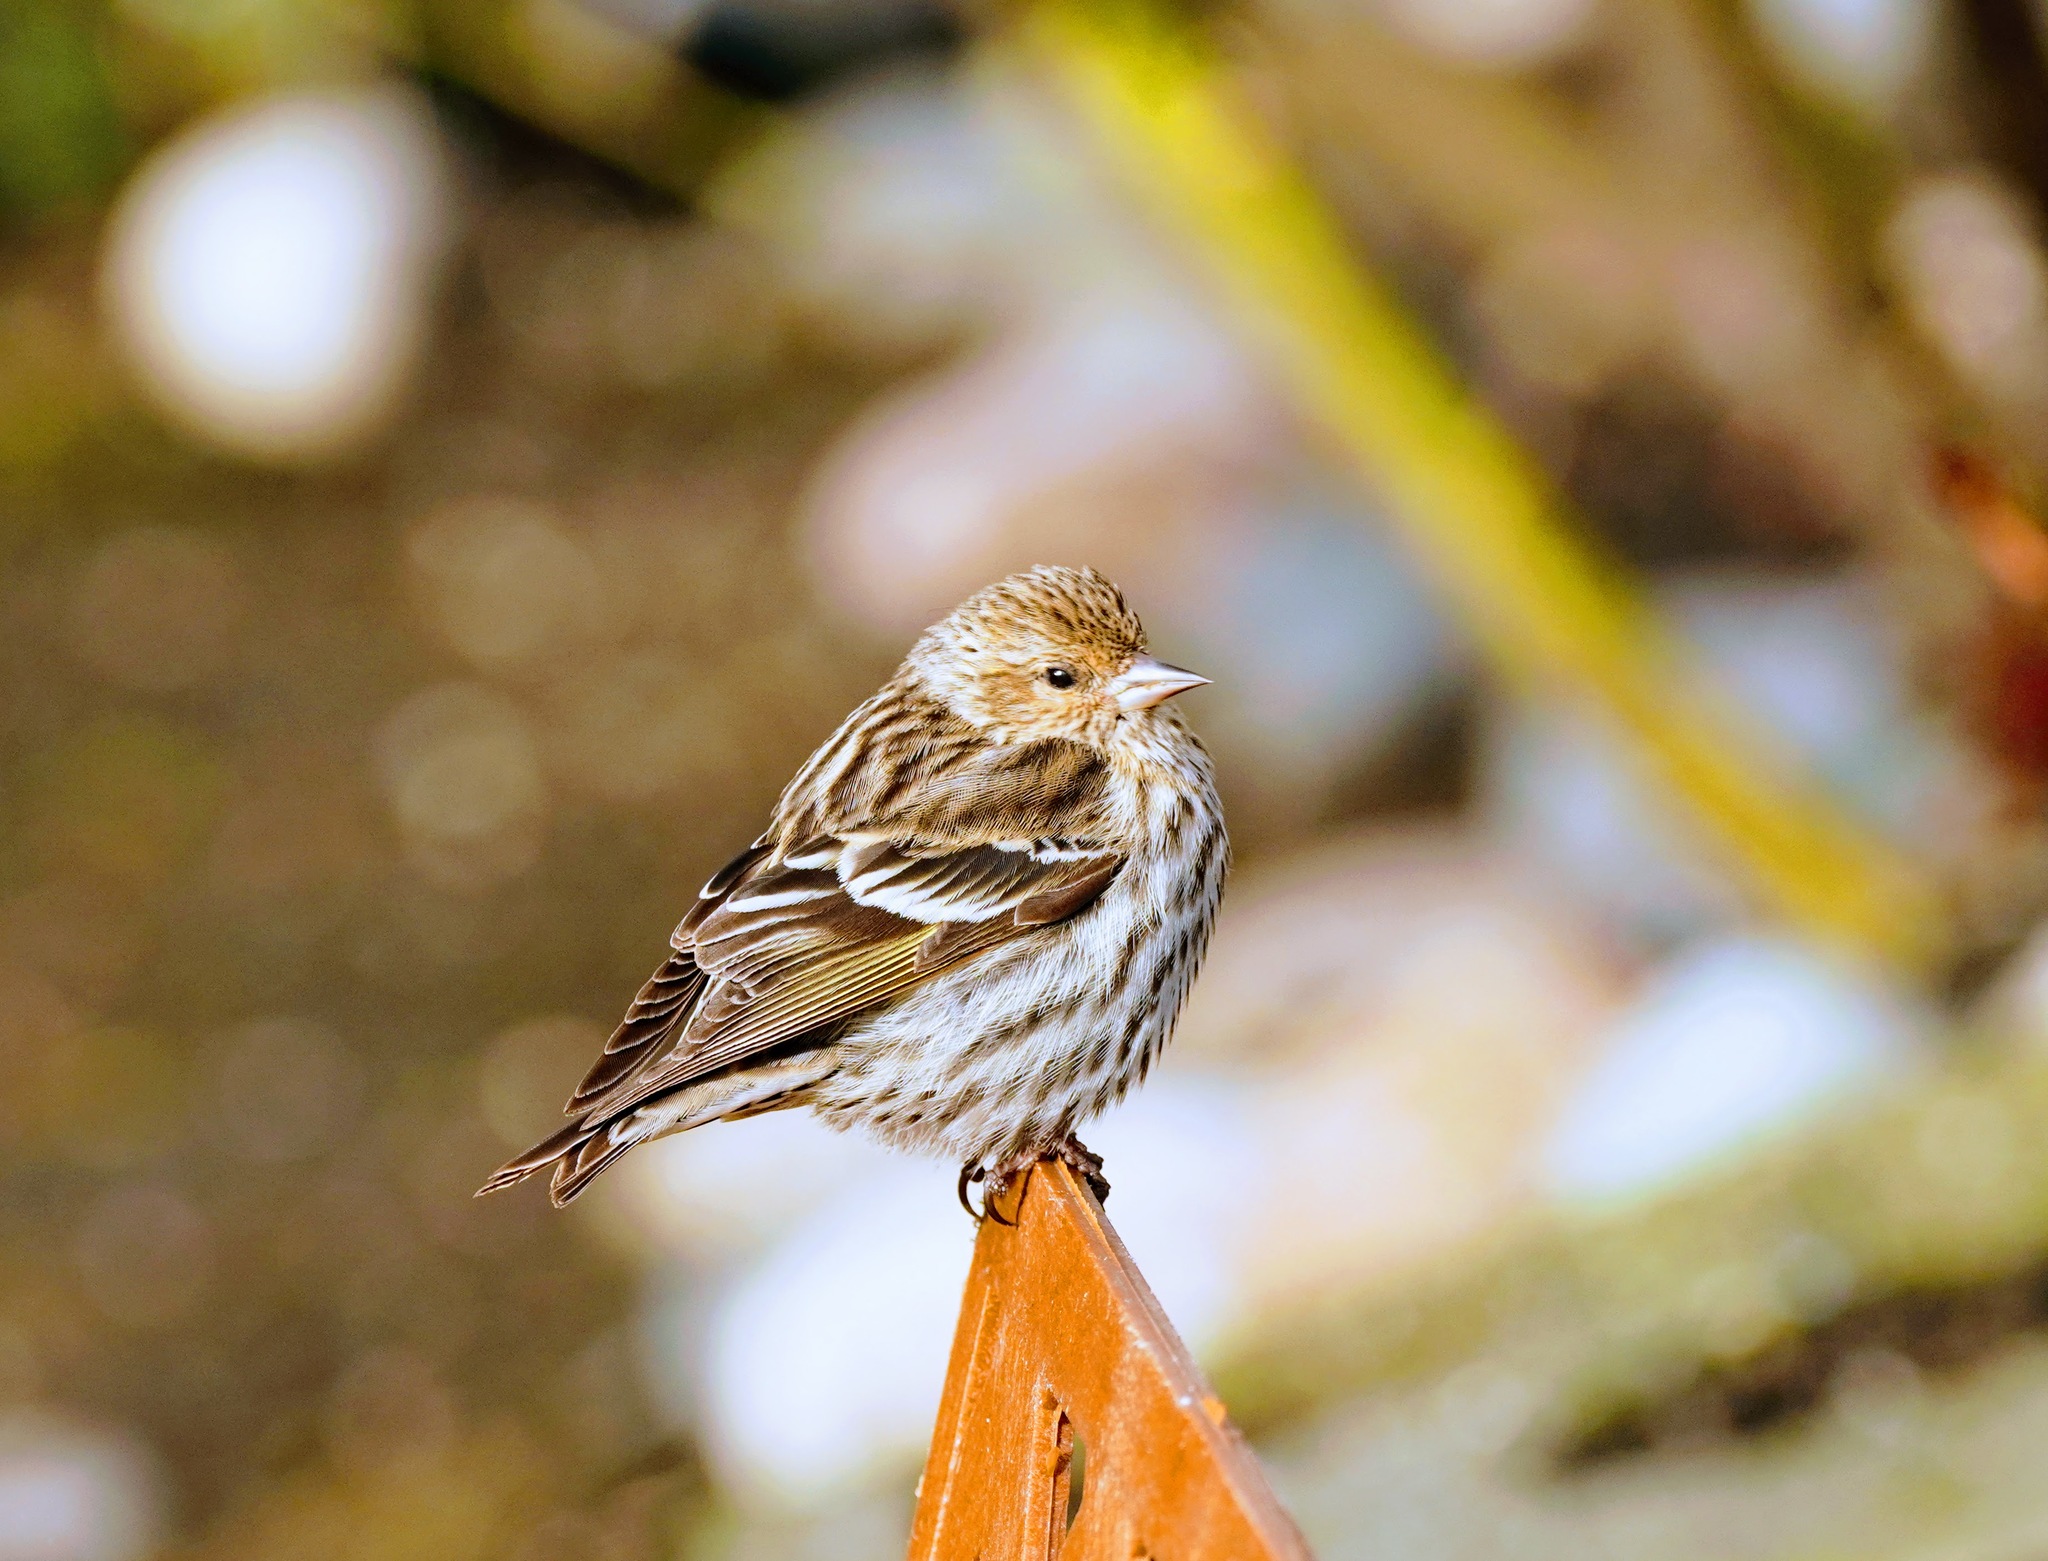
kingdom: Animalia
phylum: Chordata
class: Aves
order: Passeriformes
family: Fringillidae
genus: Spinus
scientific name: Spinus pinus
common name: Pine siskin
